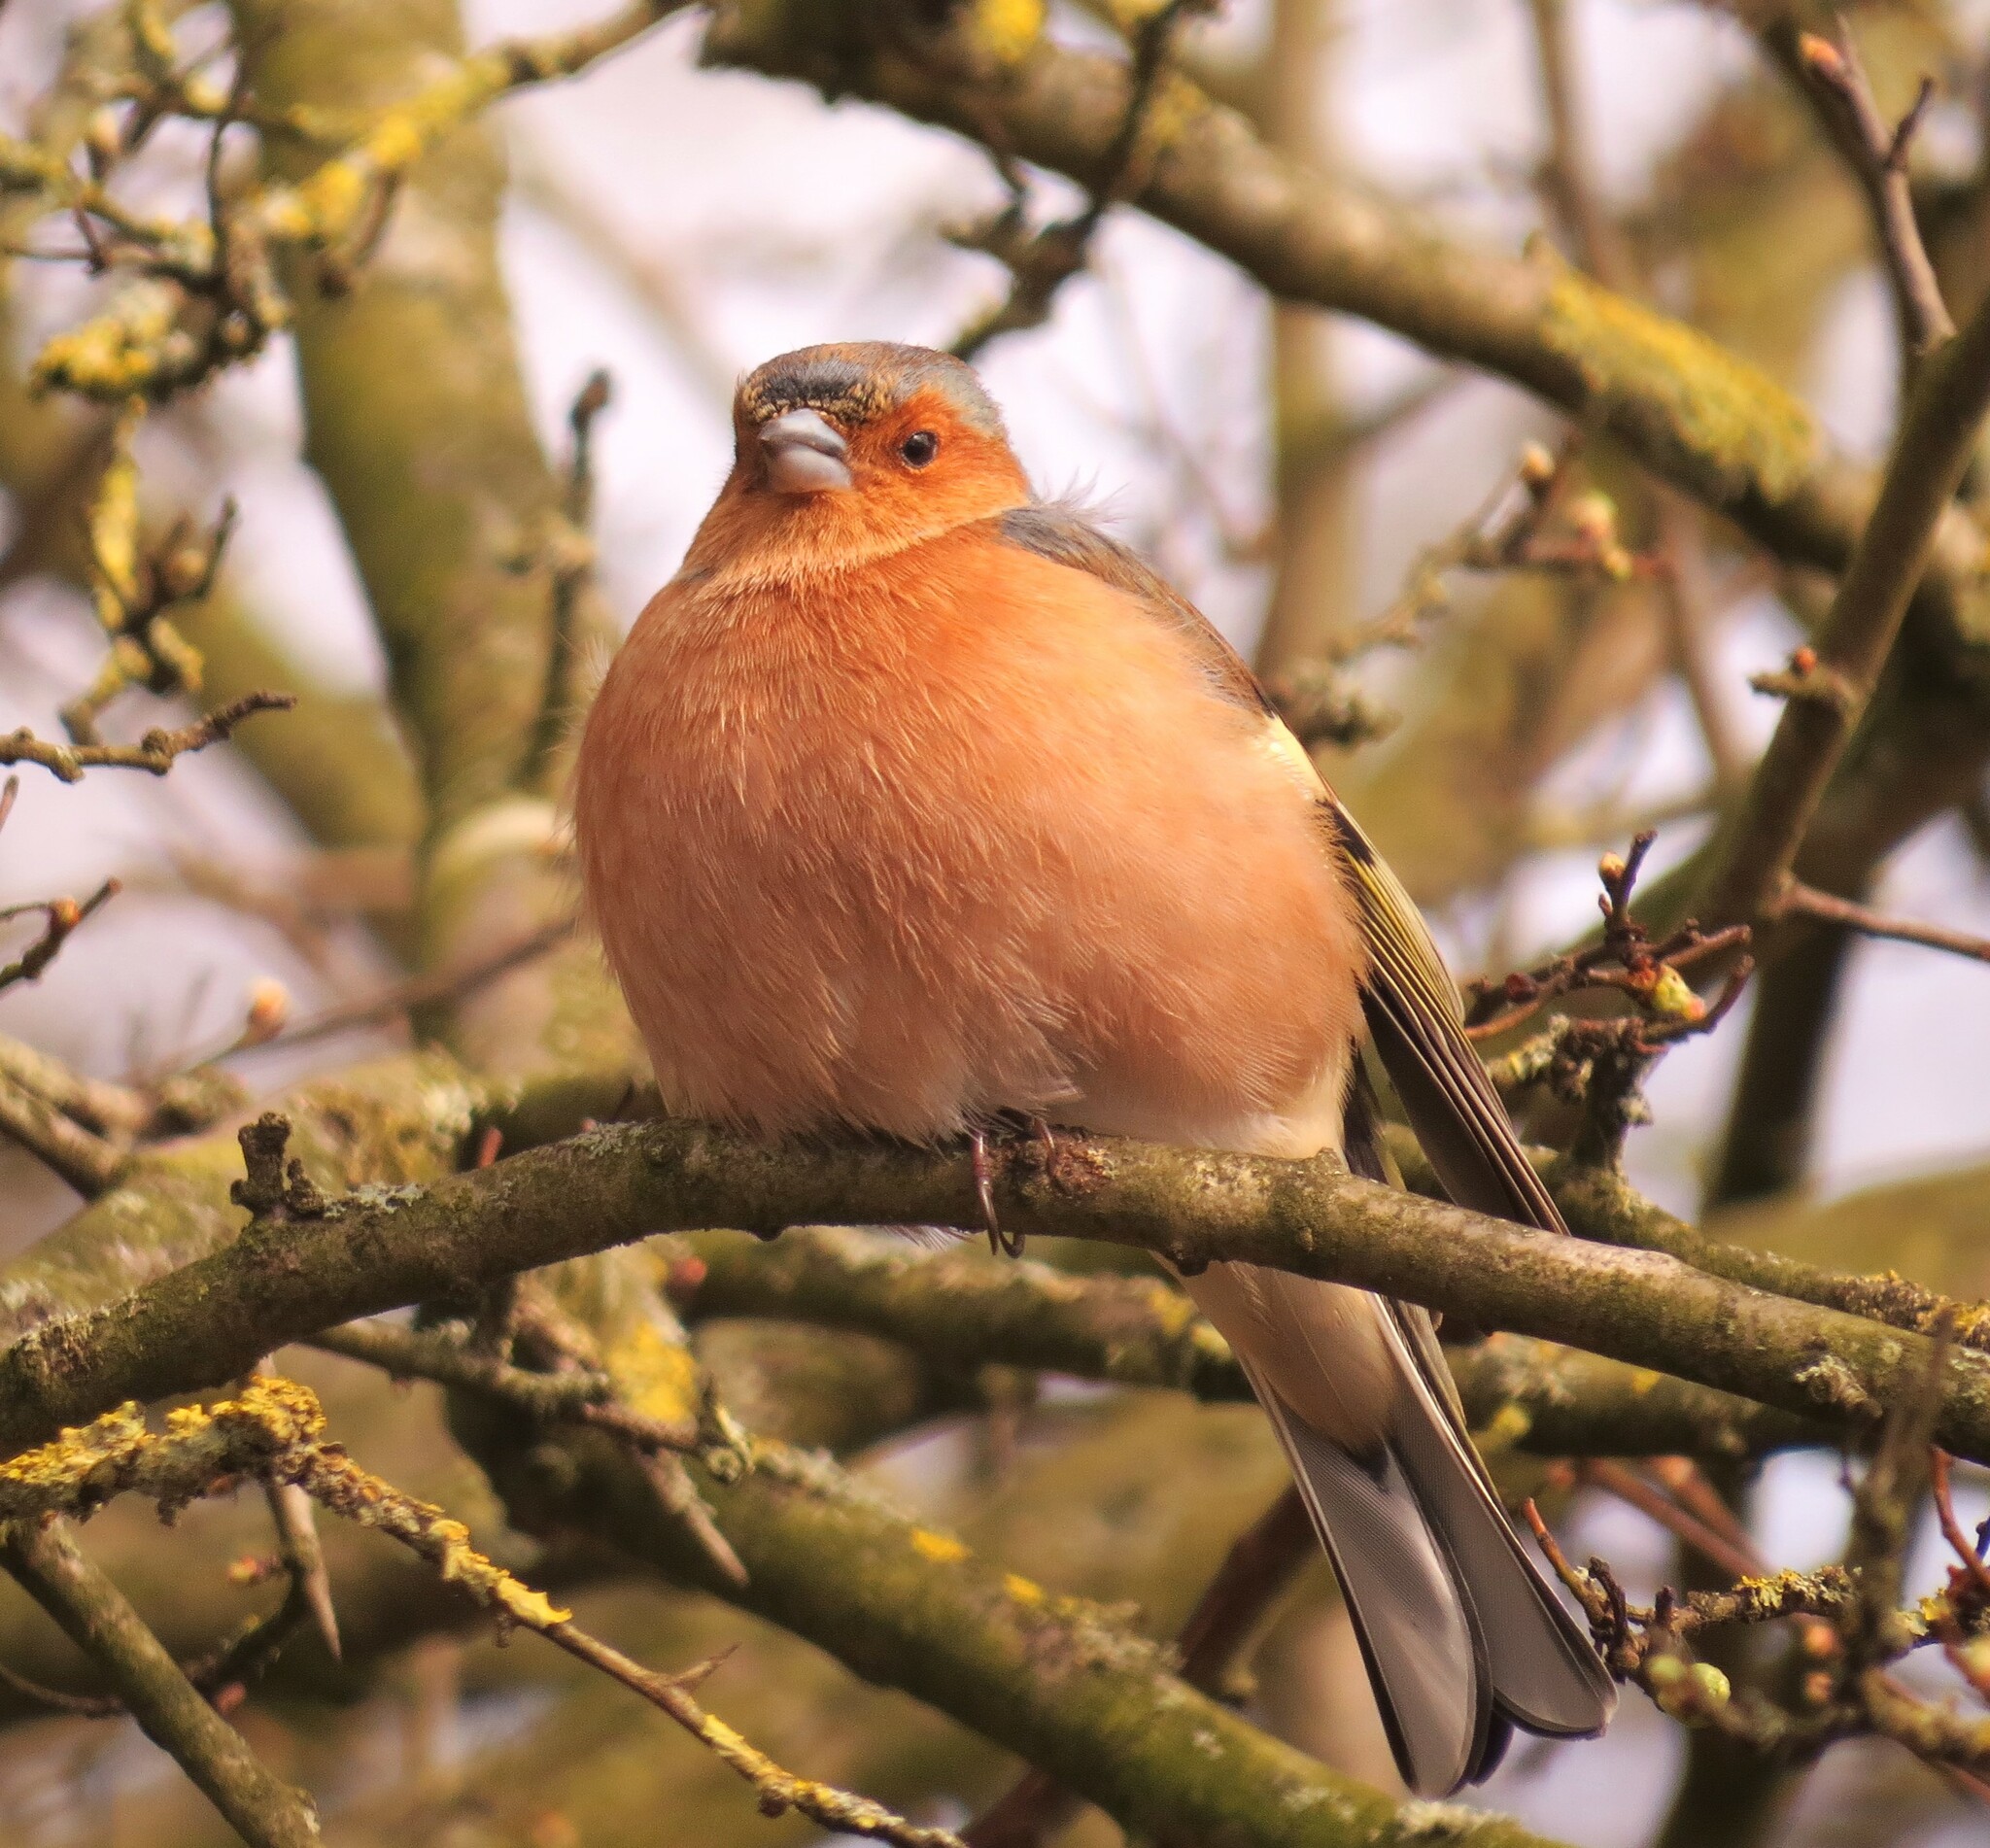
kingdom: Animalia
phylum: Chordata
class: Aves
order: Passeriformes
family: Fringillidae
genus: Fringilla
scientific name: Fringilla coelebs
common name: Common chaffinch
